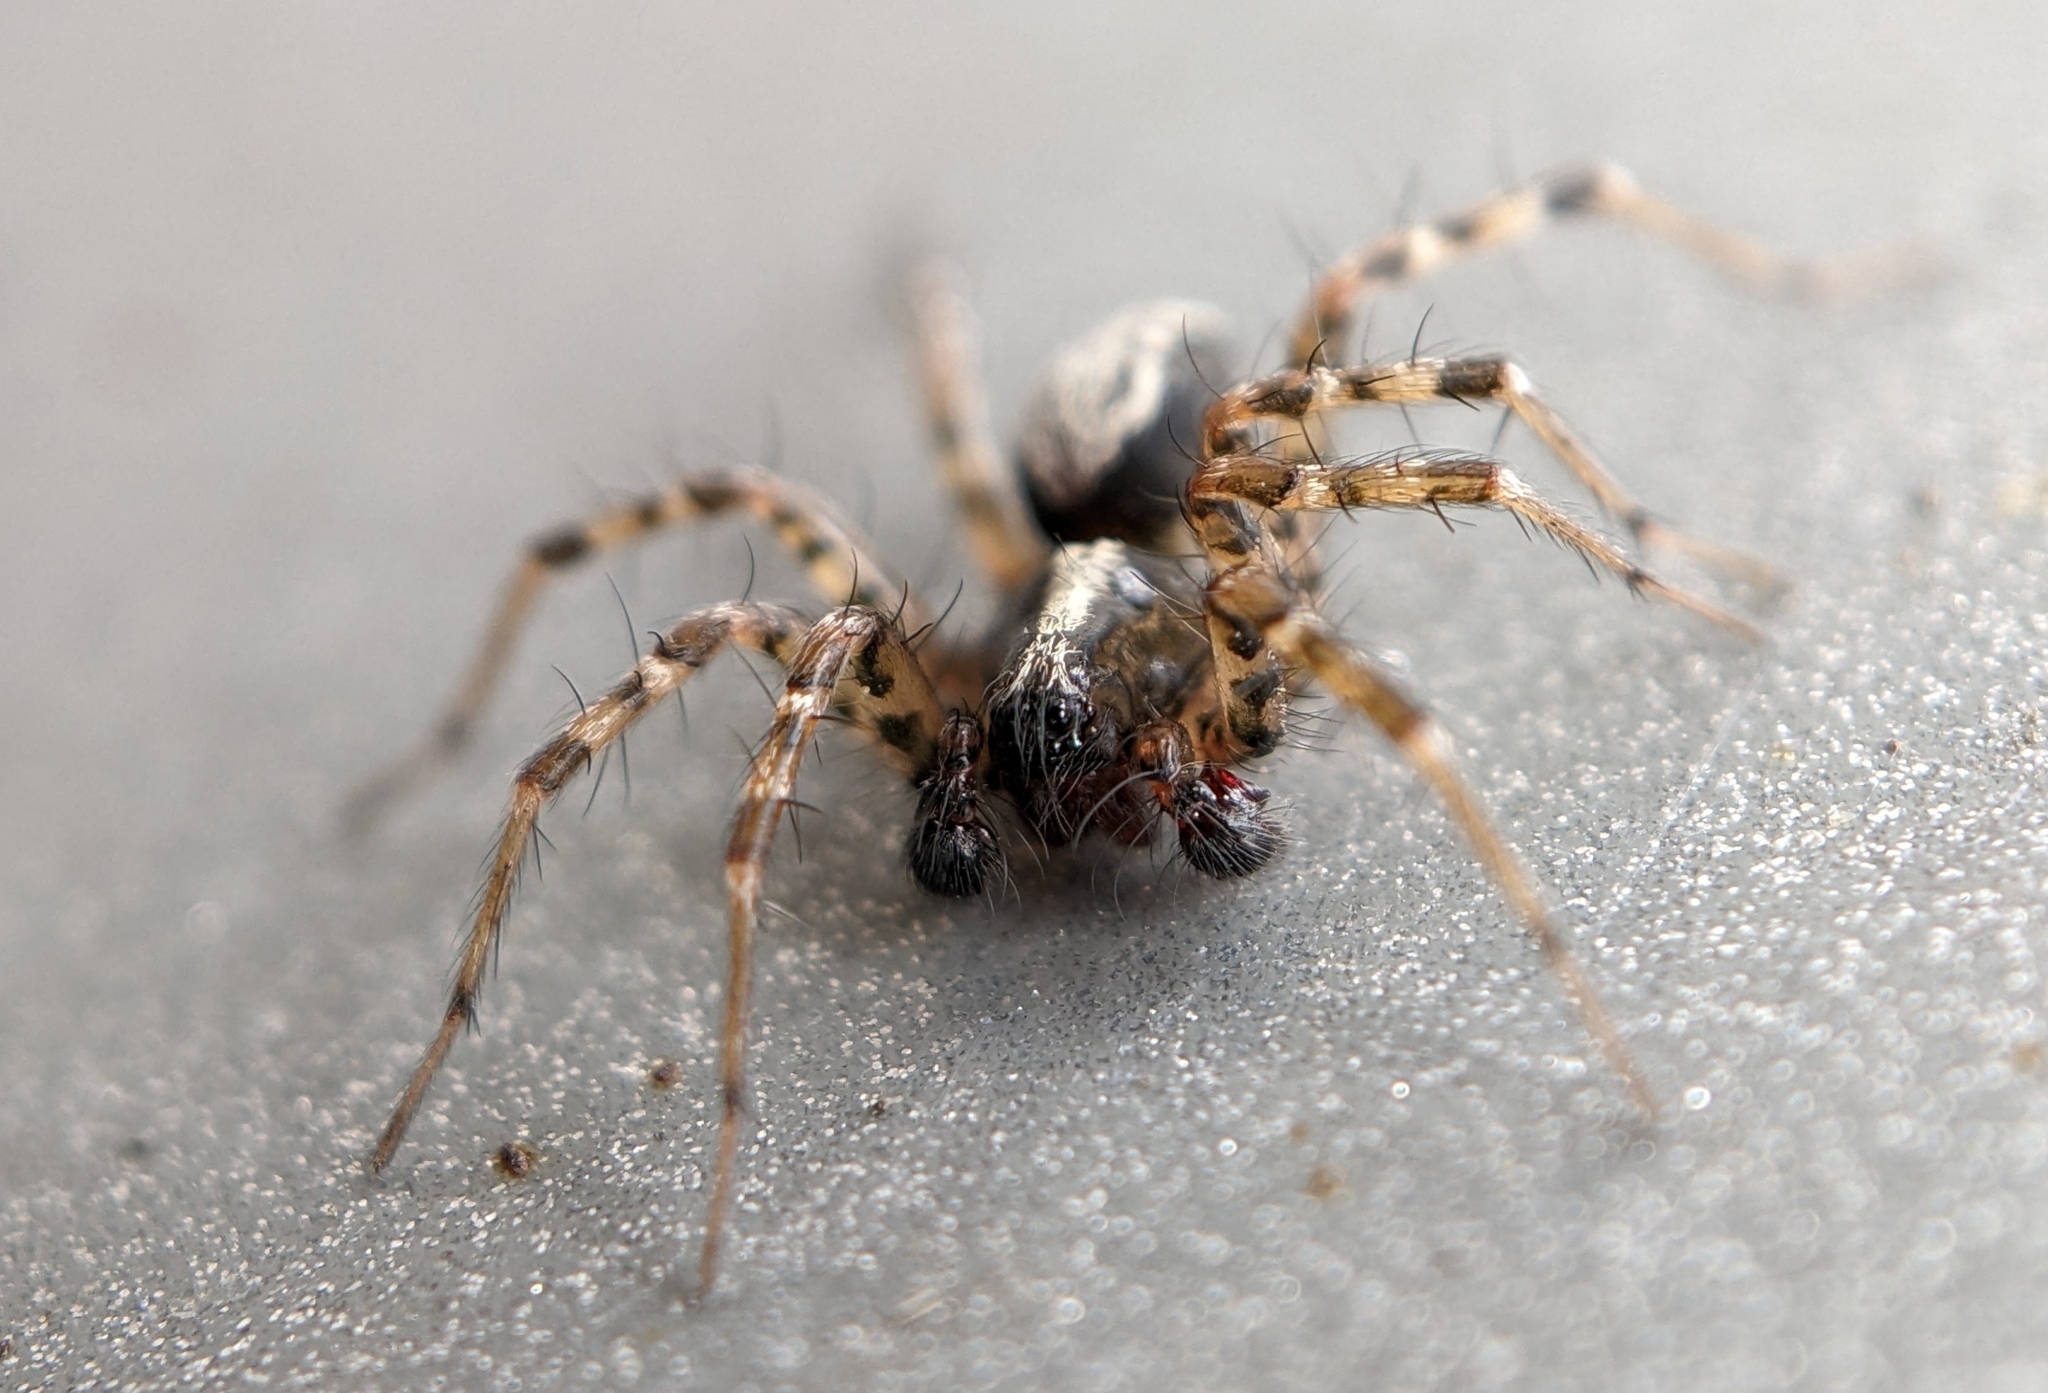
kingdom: Animalia
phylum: Arthropoda
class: Arachnida
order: Araneae
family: Agelenidae
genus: Textrix
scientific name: Textrix denticulata
